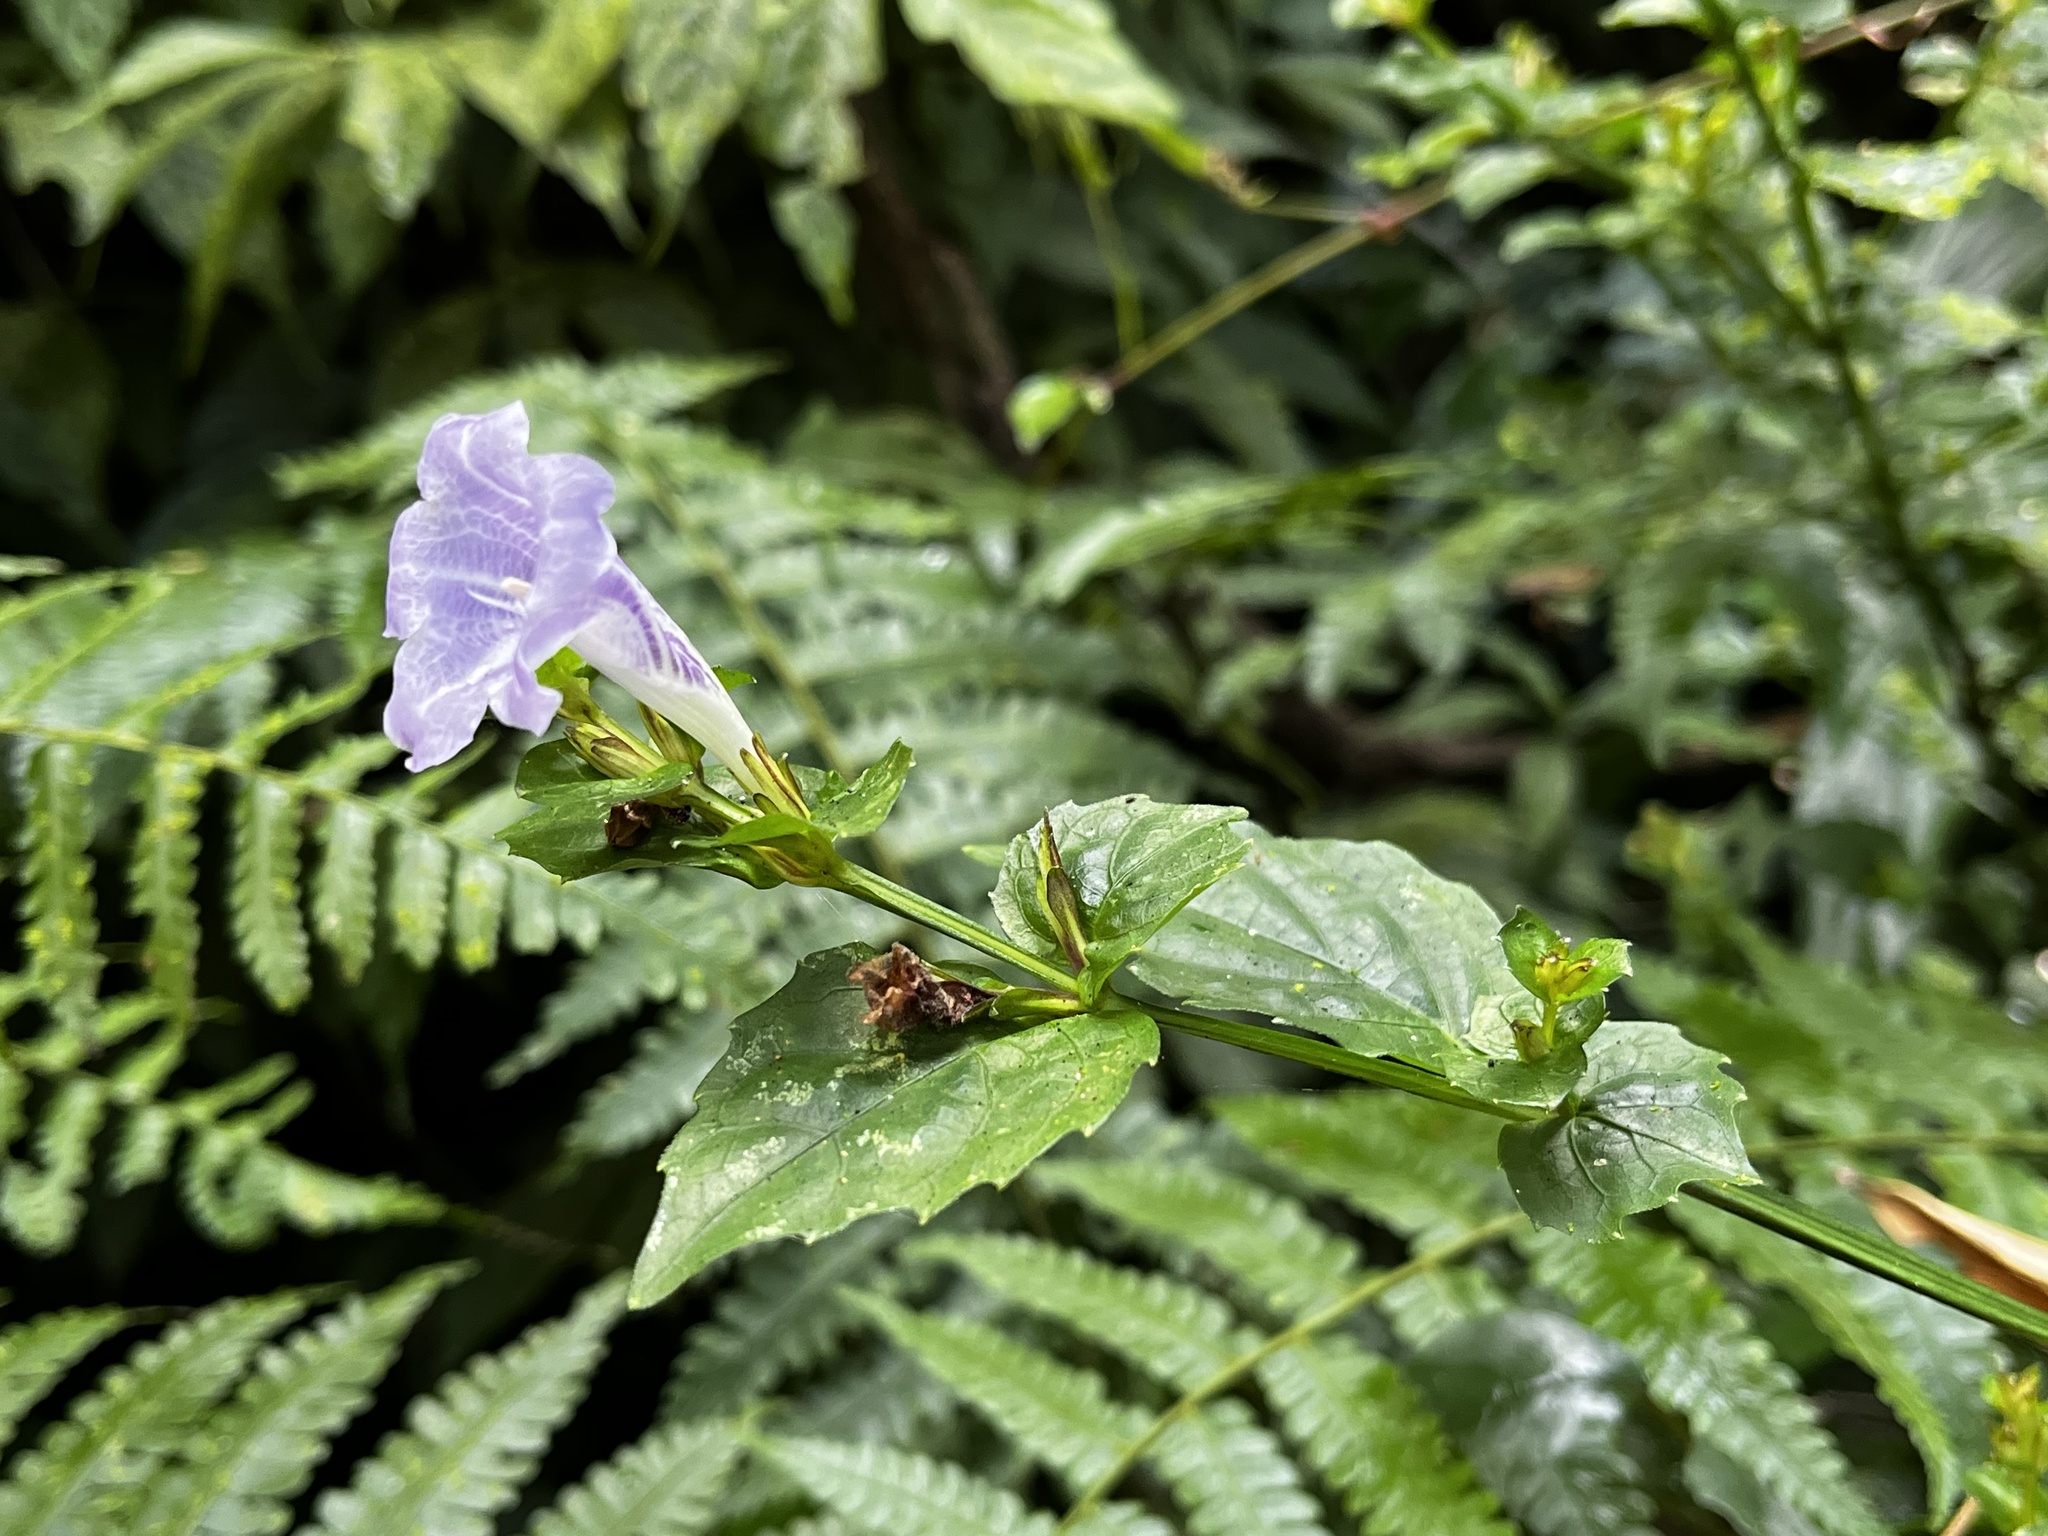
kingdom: Plantae
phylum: Tracheophyta
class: Magnoliopsida
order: Lamiales
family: Acanthaceae
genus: Strobilanthes
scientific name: Strobilanthes flexicaulis
